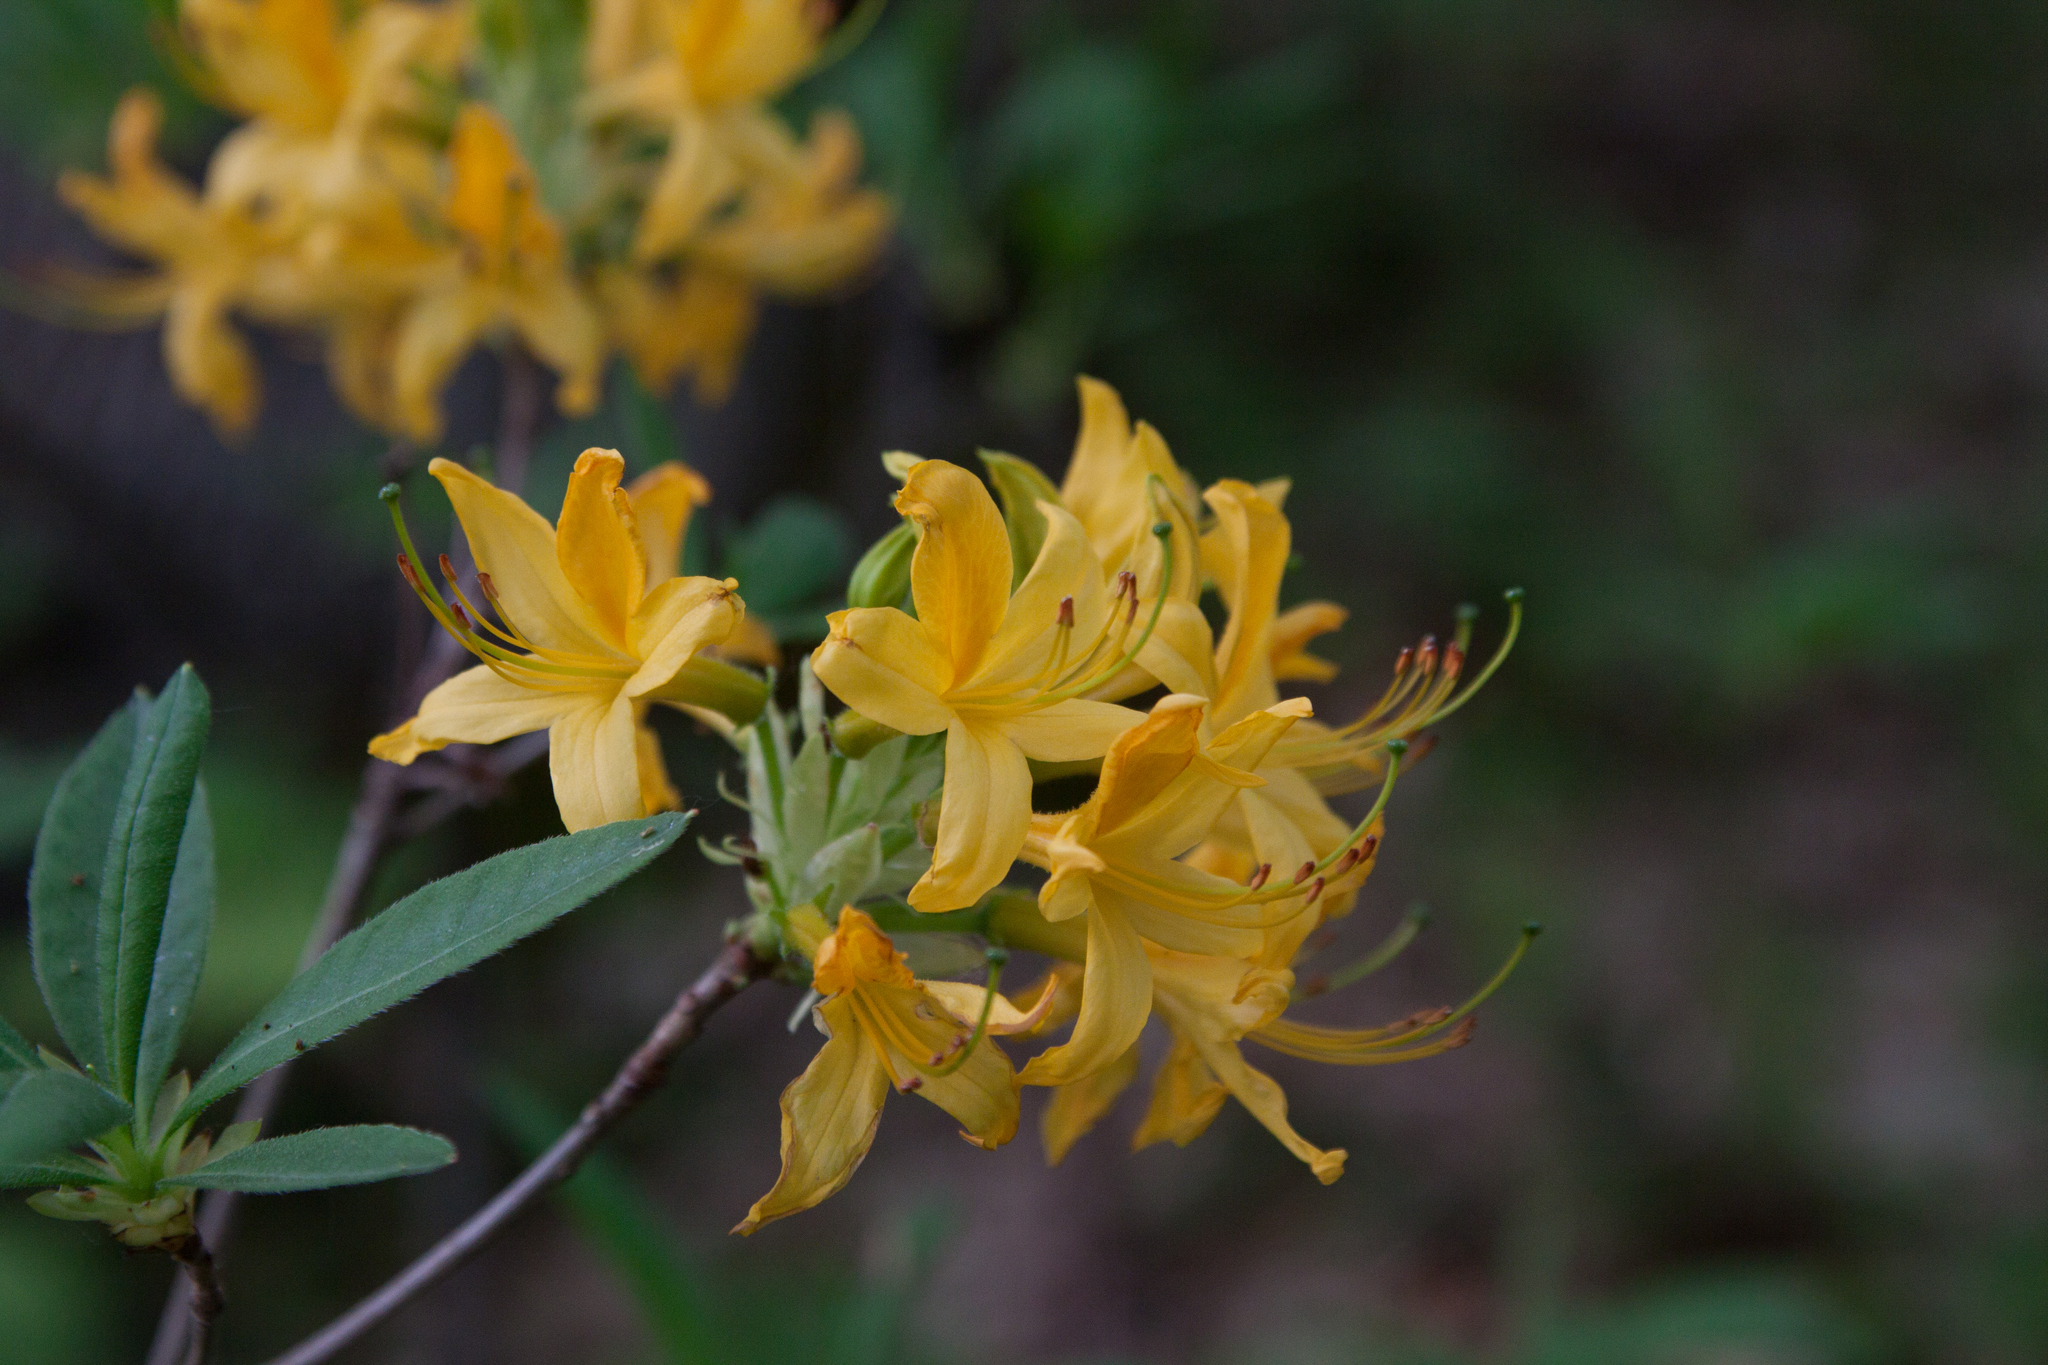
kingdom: Plantae
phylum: Tracheophyta
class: Magnoliopsida
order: Ericales
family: Ericaceae
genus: Rhododendron
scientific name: Rhododendron luteum
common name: Yellow azalea
